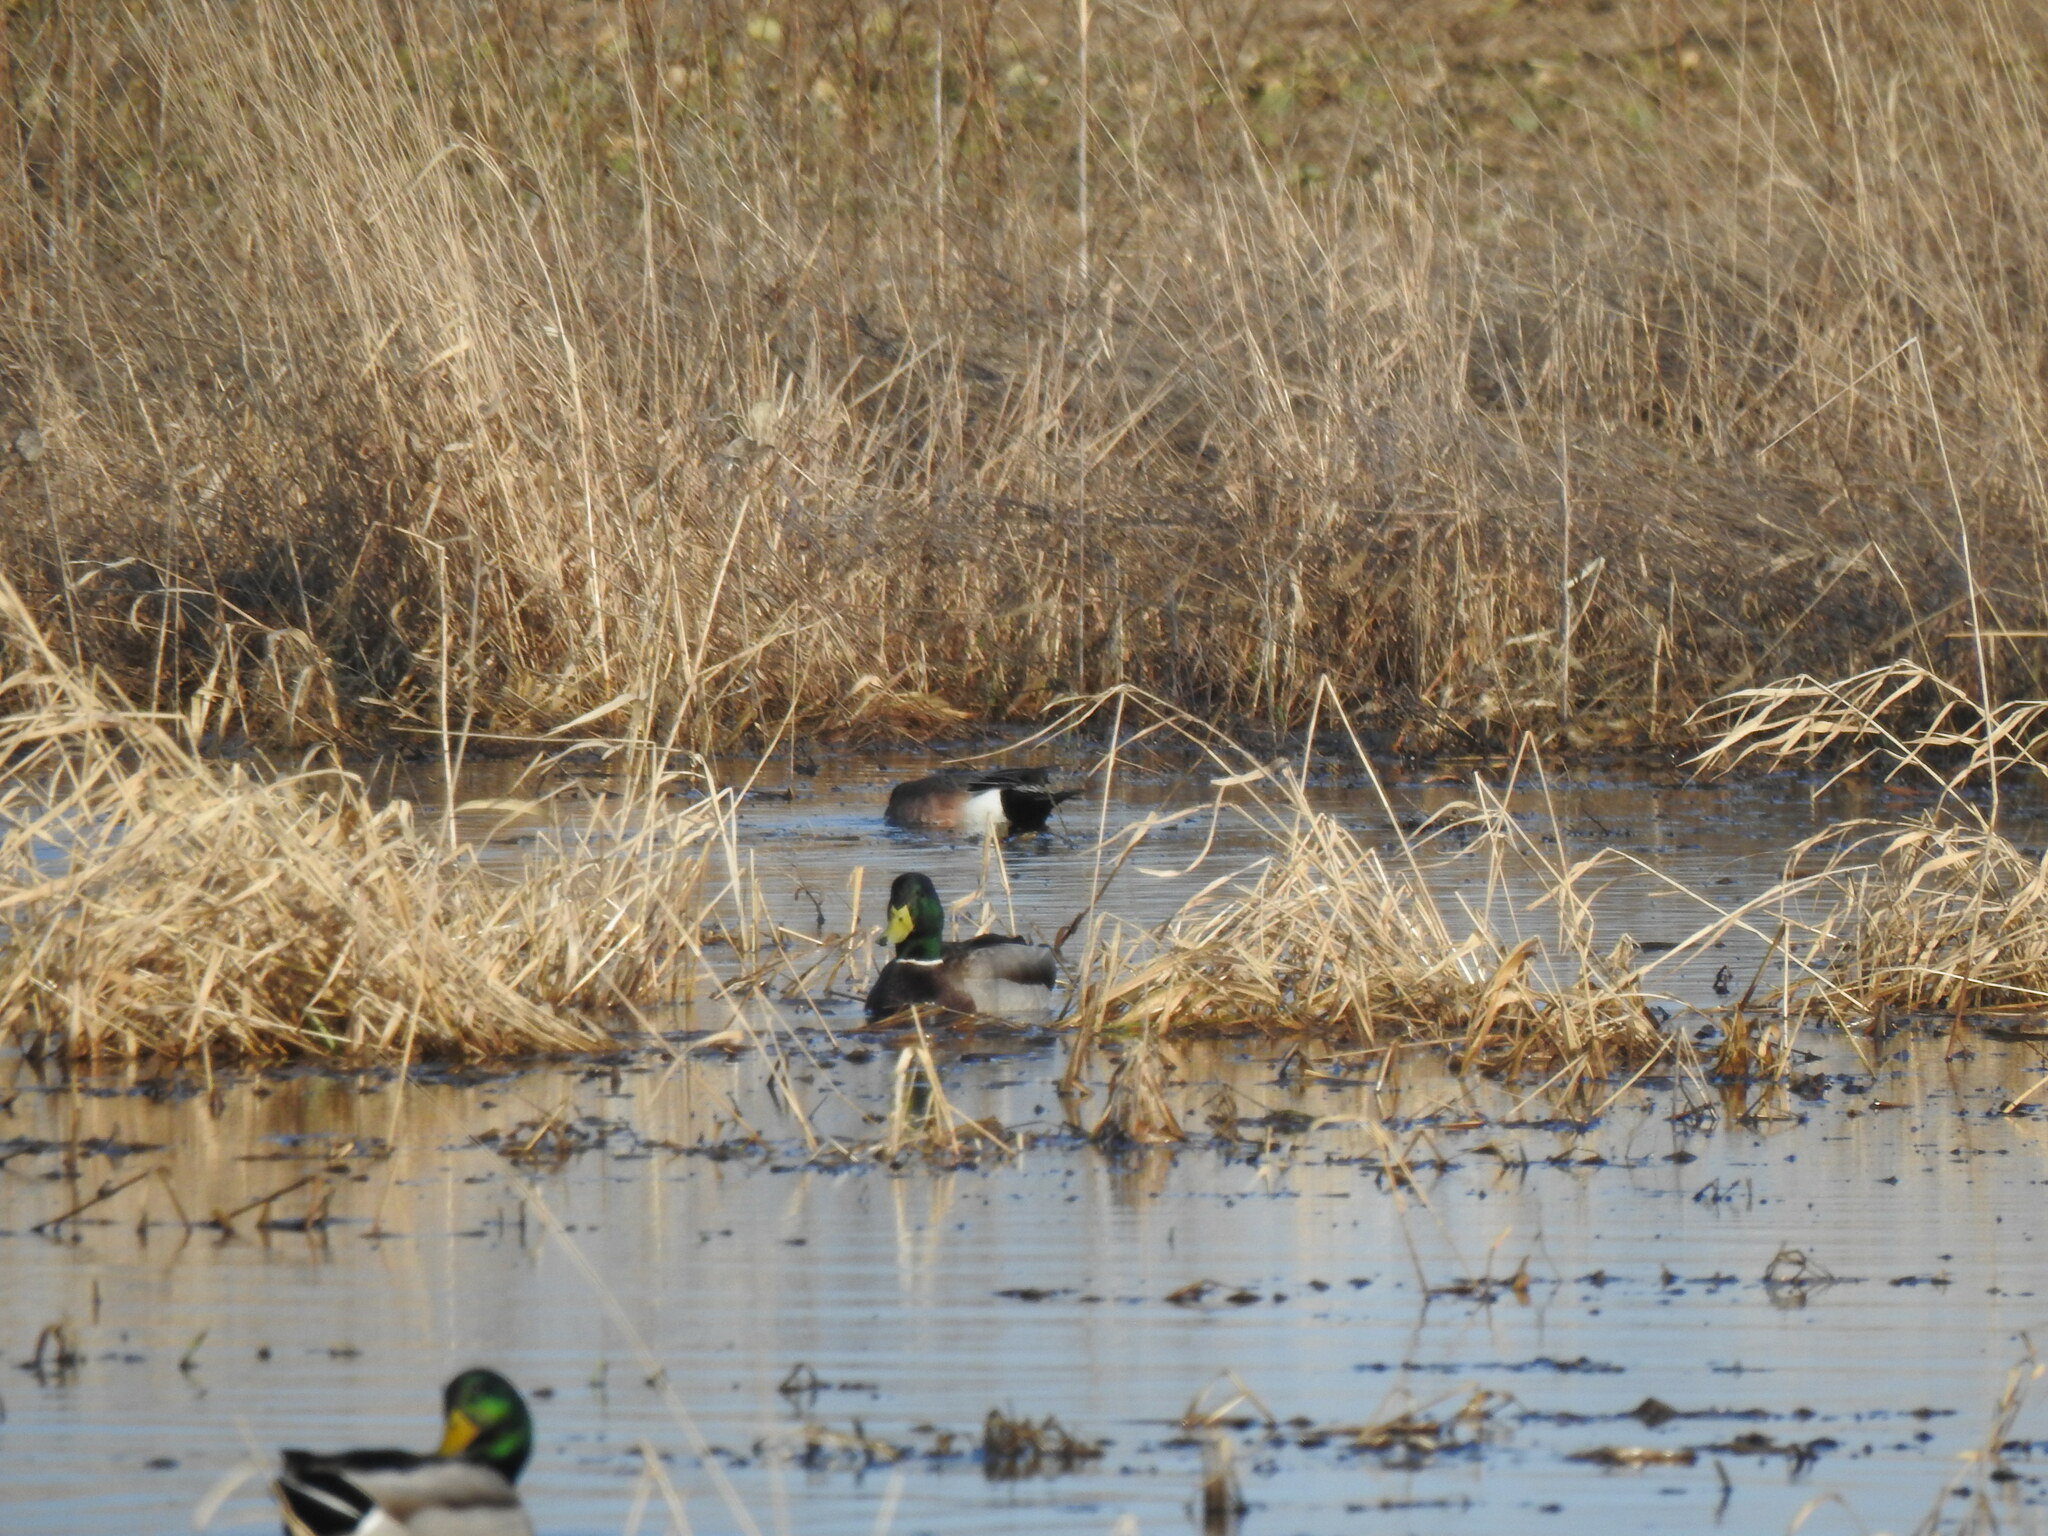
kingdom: Animalia
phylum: Chordata
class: Aves
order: Anseriformes
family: Anatidae
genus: Mareca
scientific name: Mareca americana
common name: American wigeon
